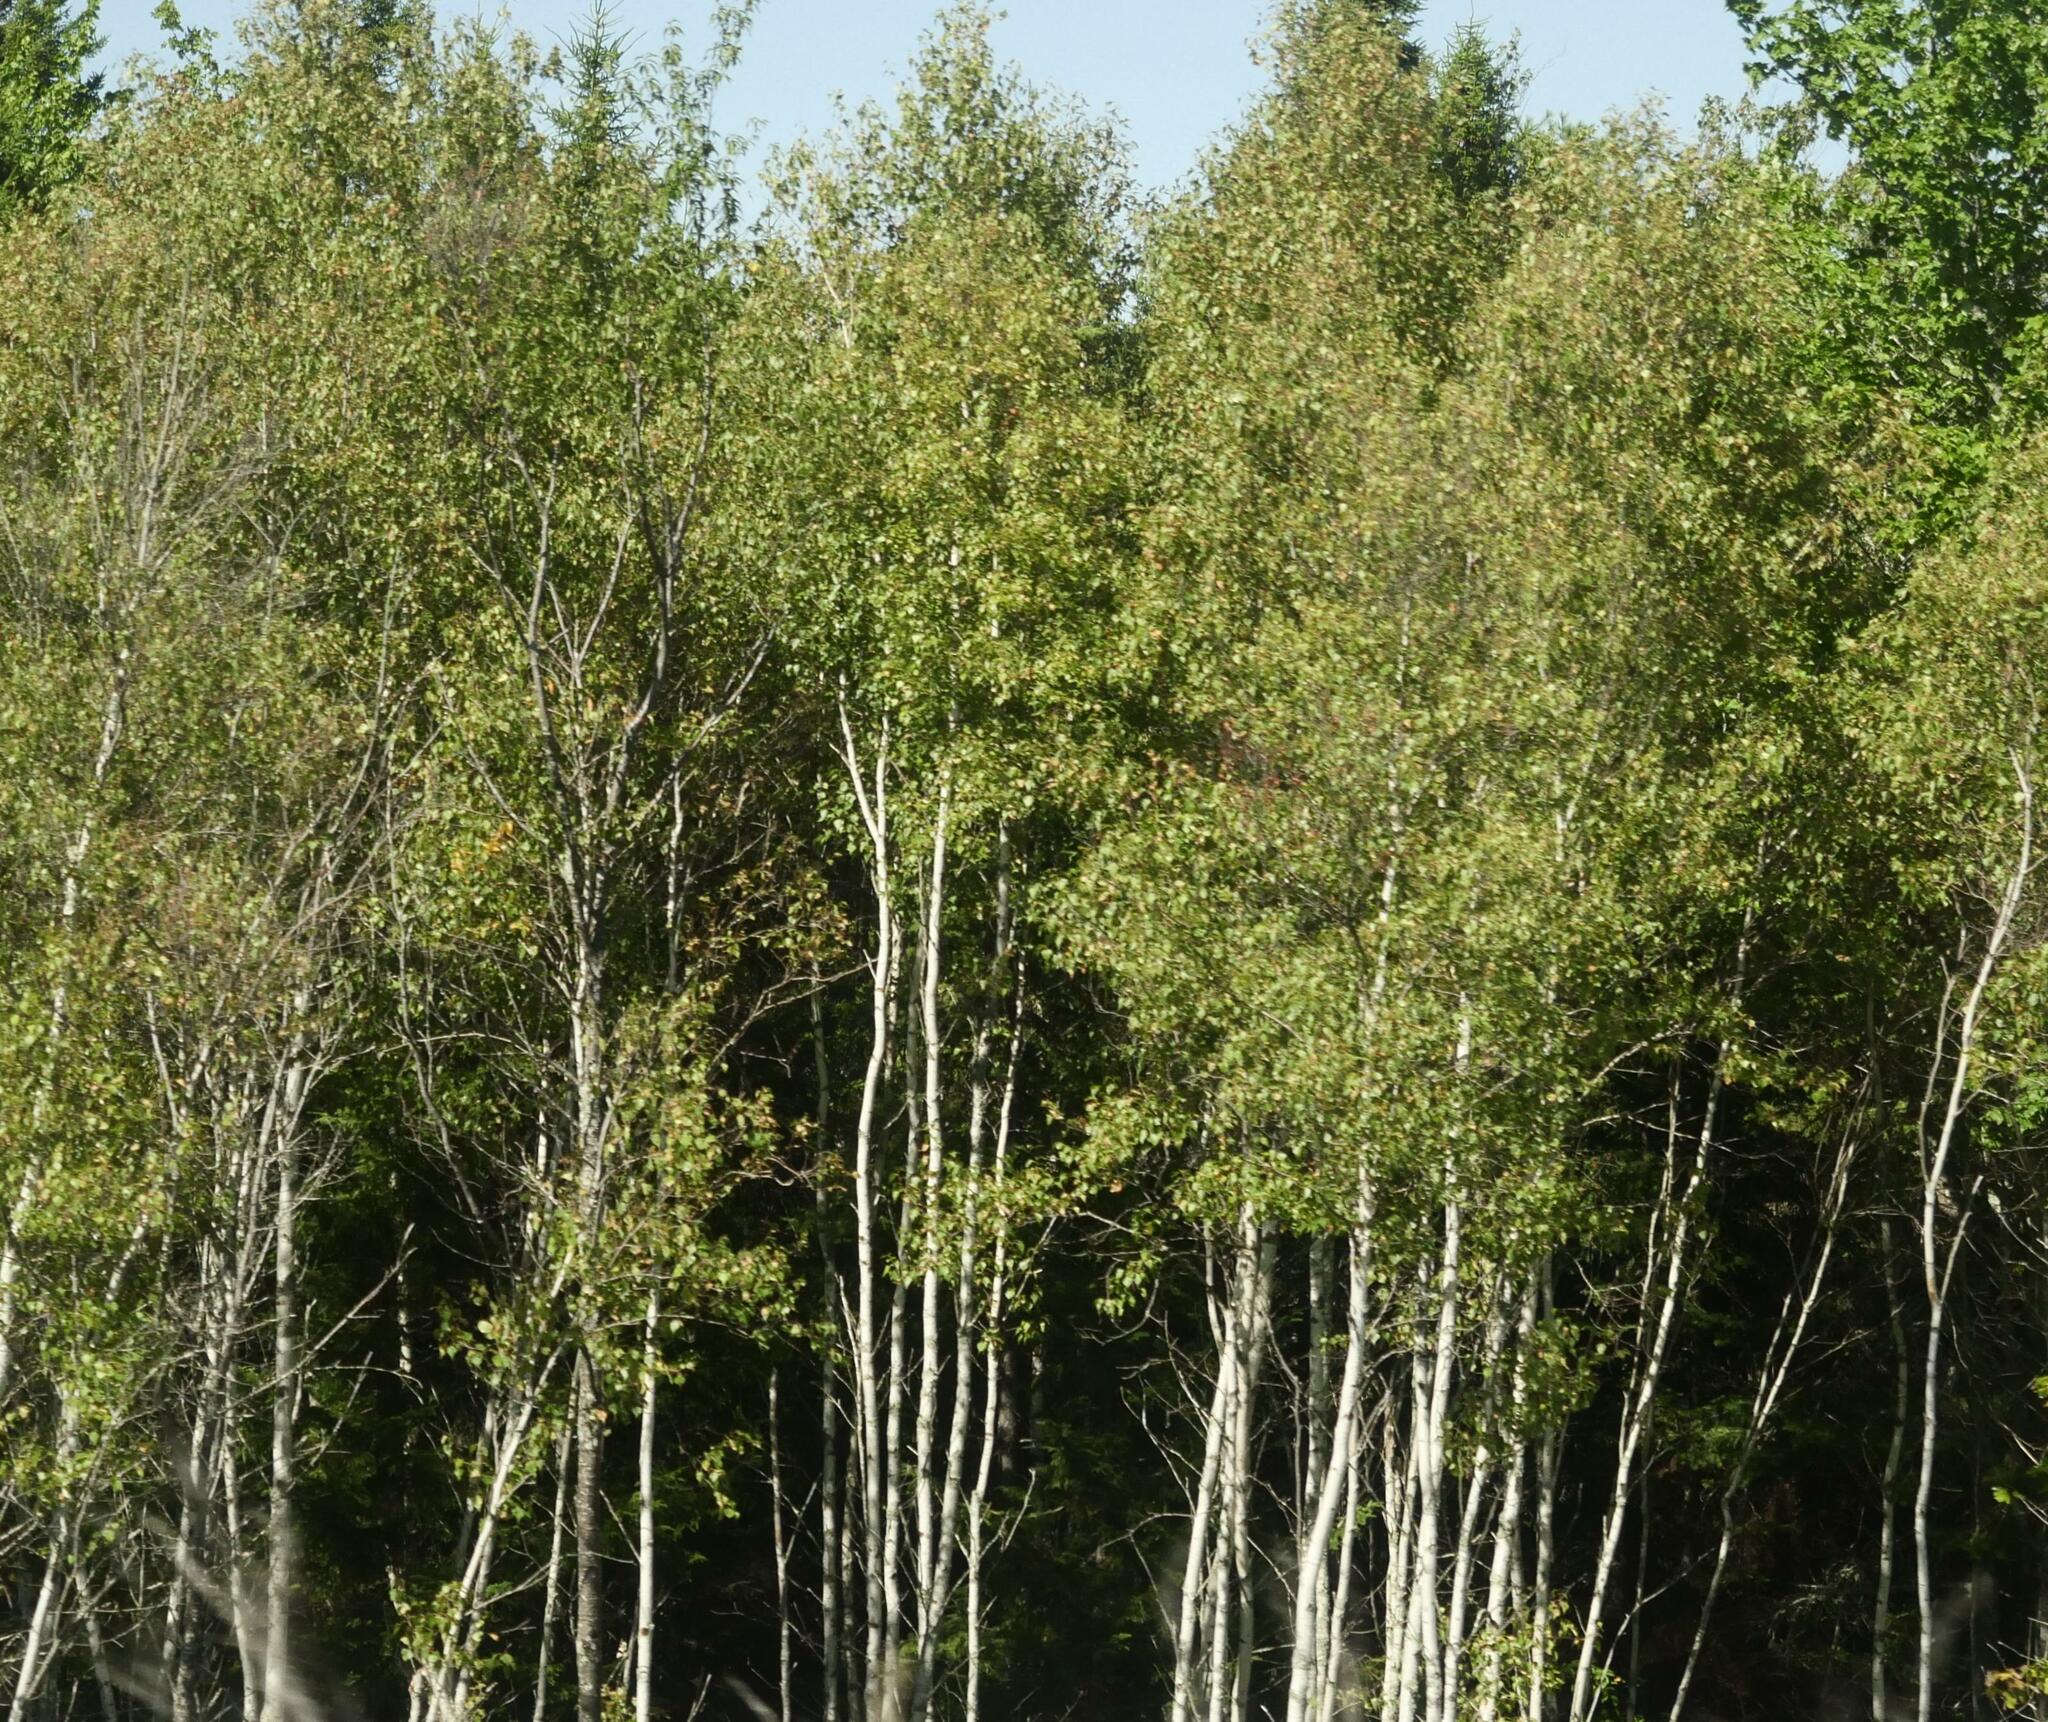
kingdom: Plantae
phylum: Tracheophyta
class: Magnoliopsida
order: Malpighiales
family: Salicaceae
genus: Populus
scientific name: Populus tremuloides
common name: Quaking aspen
